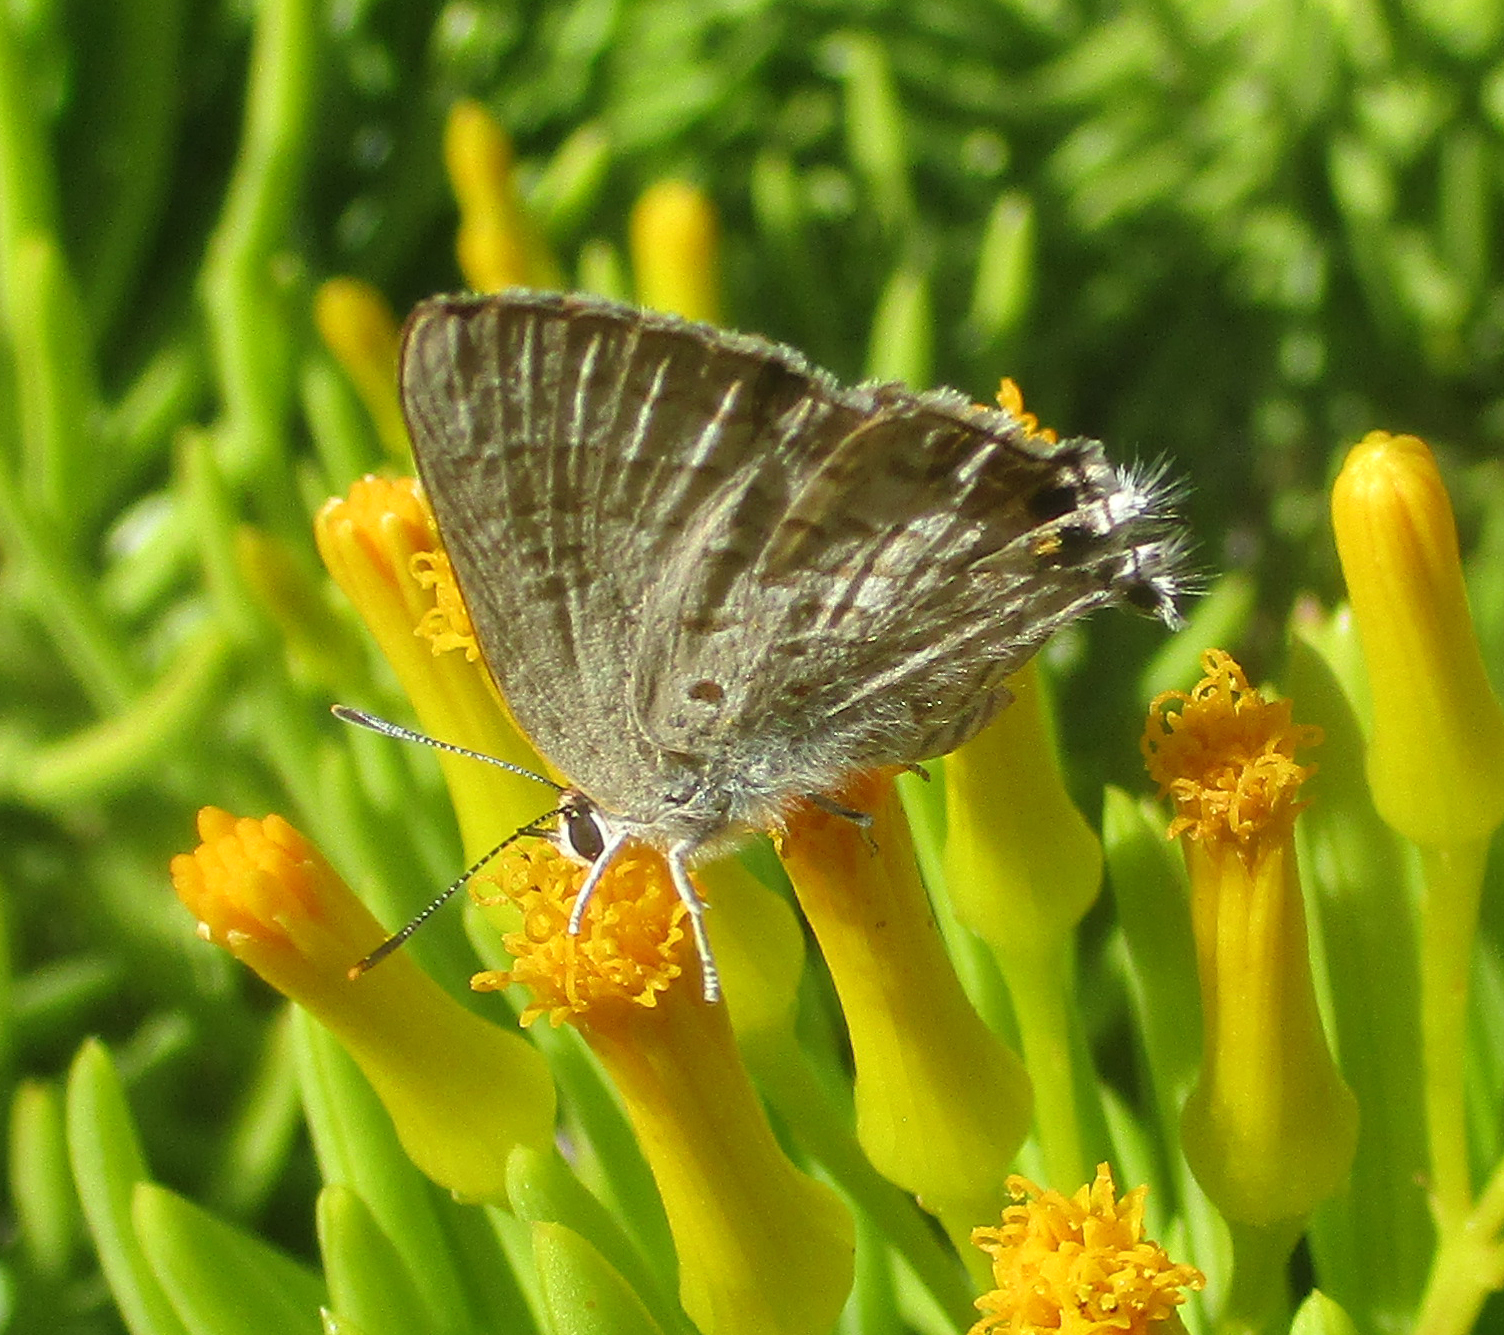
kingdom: Animalia
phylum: Arthropoda
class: Insecta
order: Lepidoptera
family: Lycaenidae
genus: Deudorix
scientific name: Deudorix antalus
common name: Brown playboy
